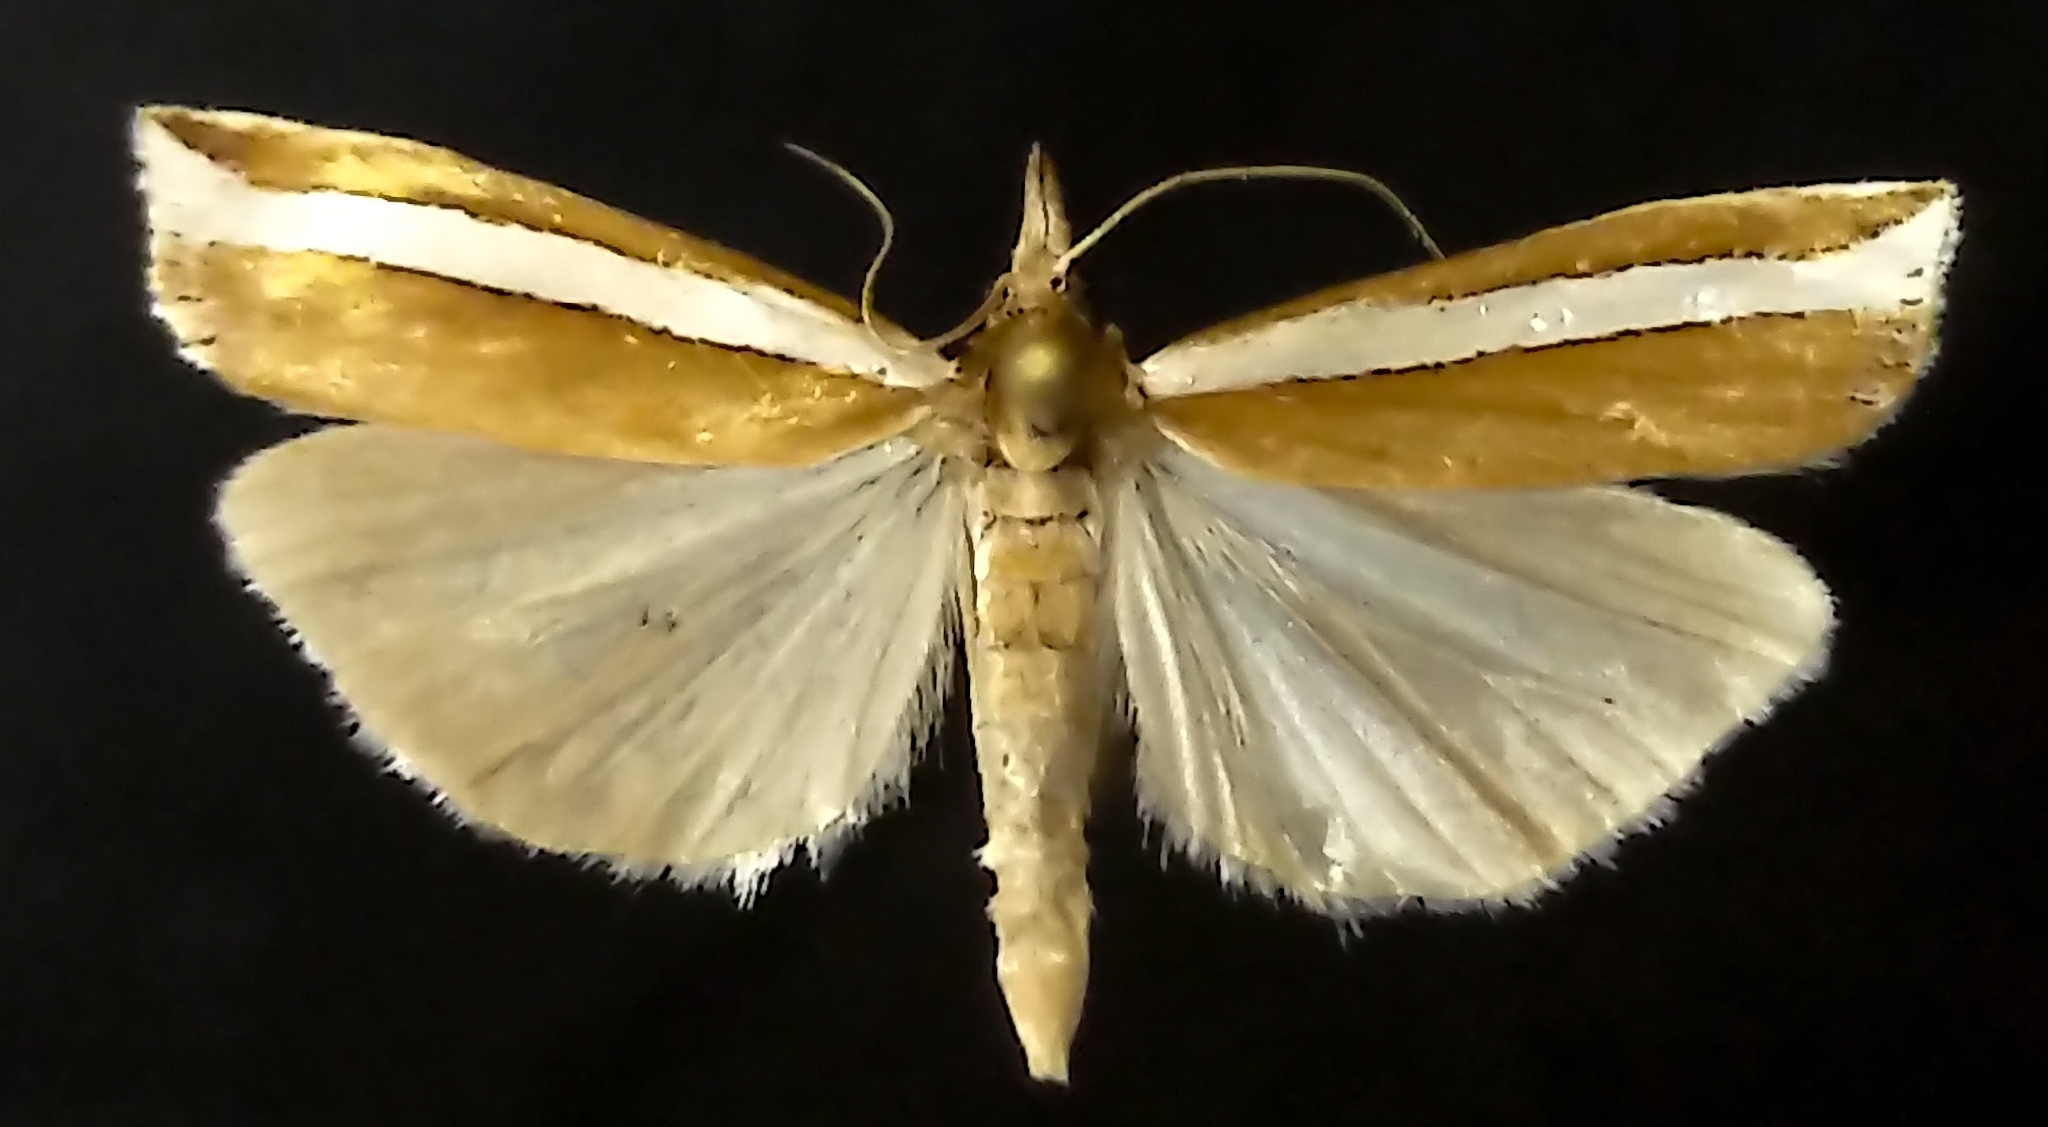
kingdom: Animalia
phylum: Arthropoda
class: Insecta
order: Lepidoptera
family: Crambidae
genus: Crambus
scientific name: Crambus unistriatellus
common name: Wide-stripe grass-veneer moth
